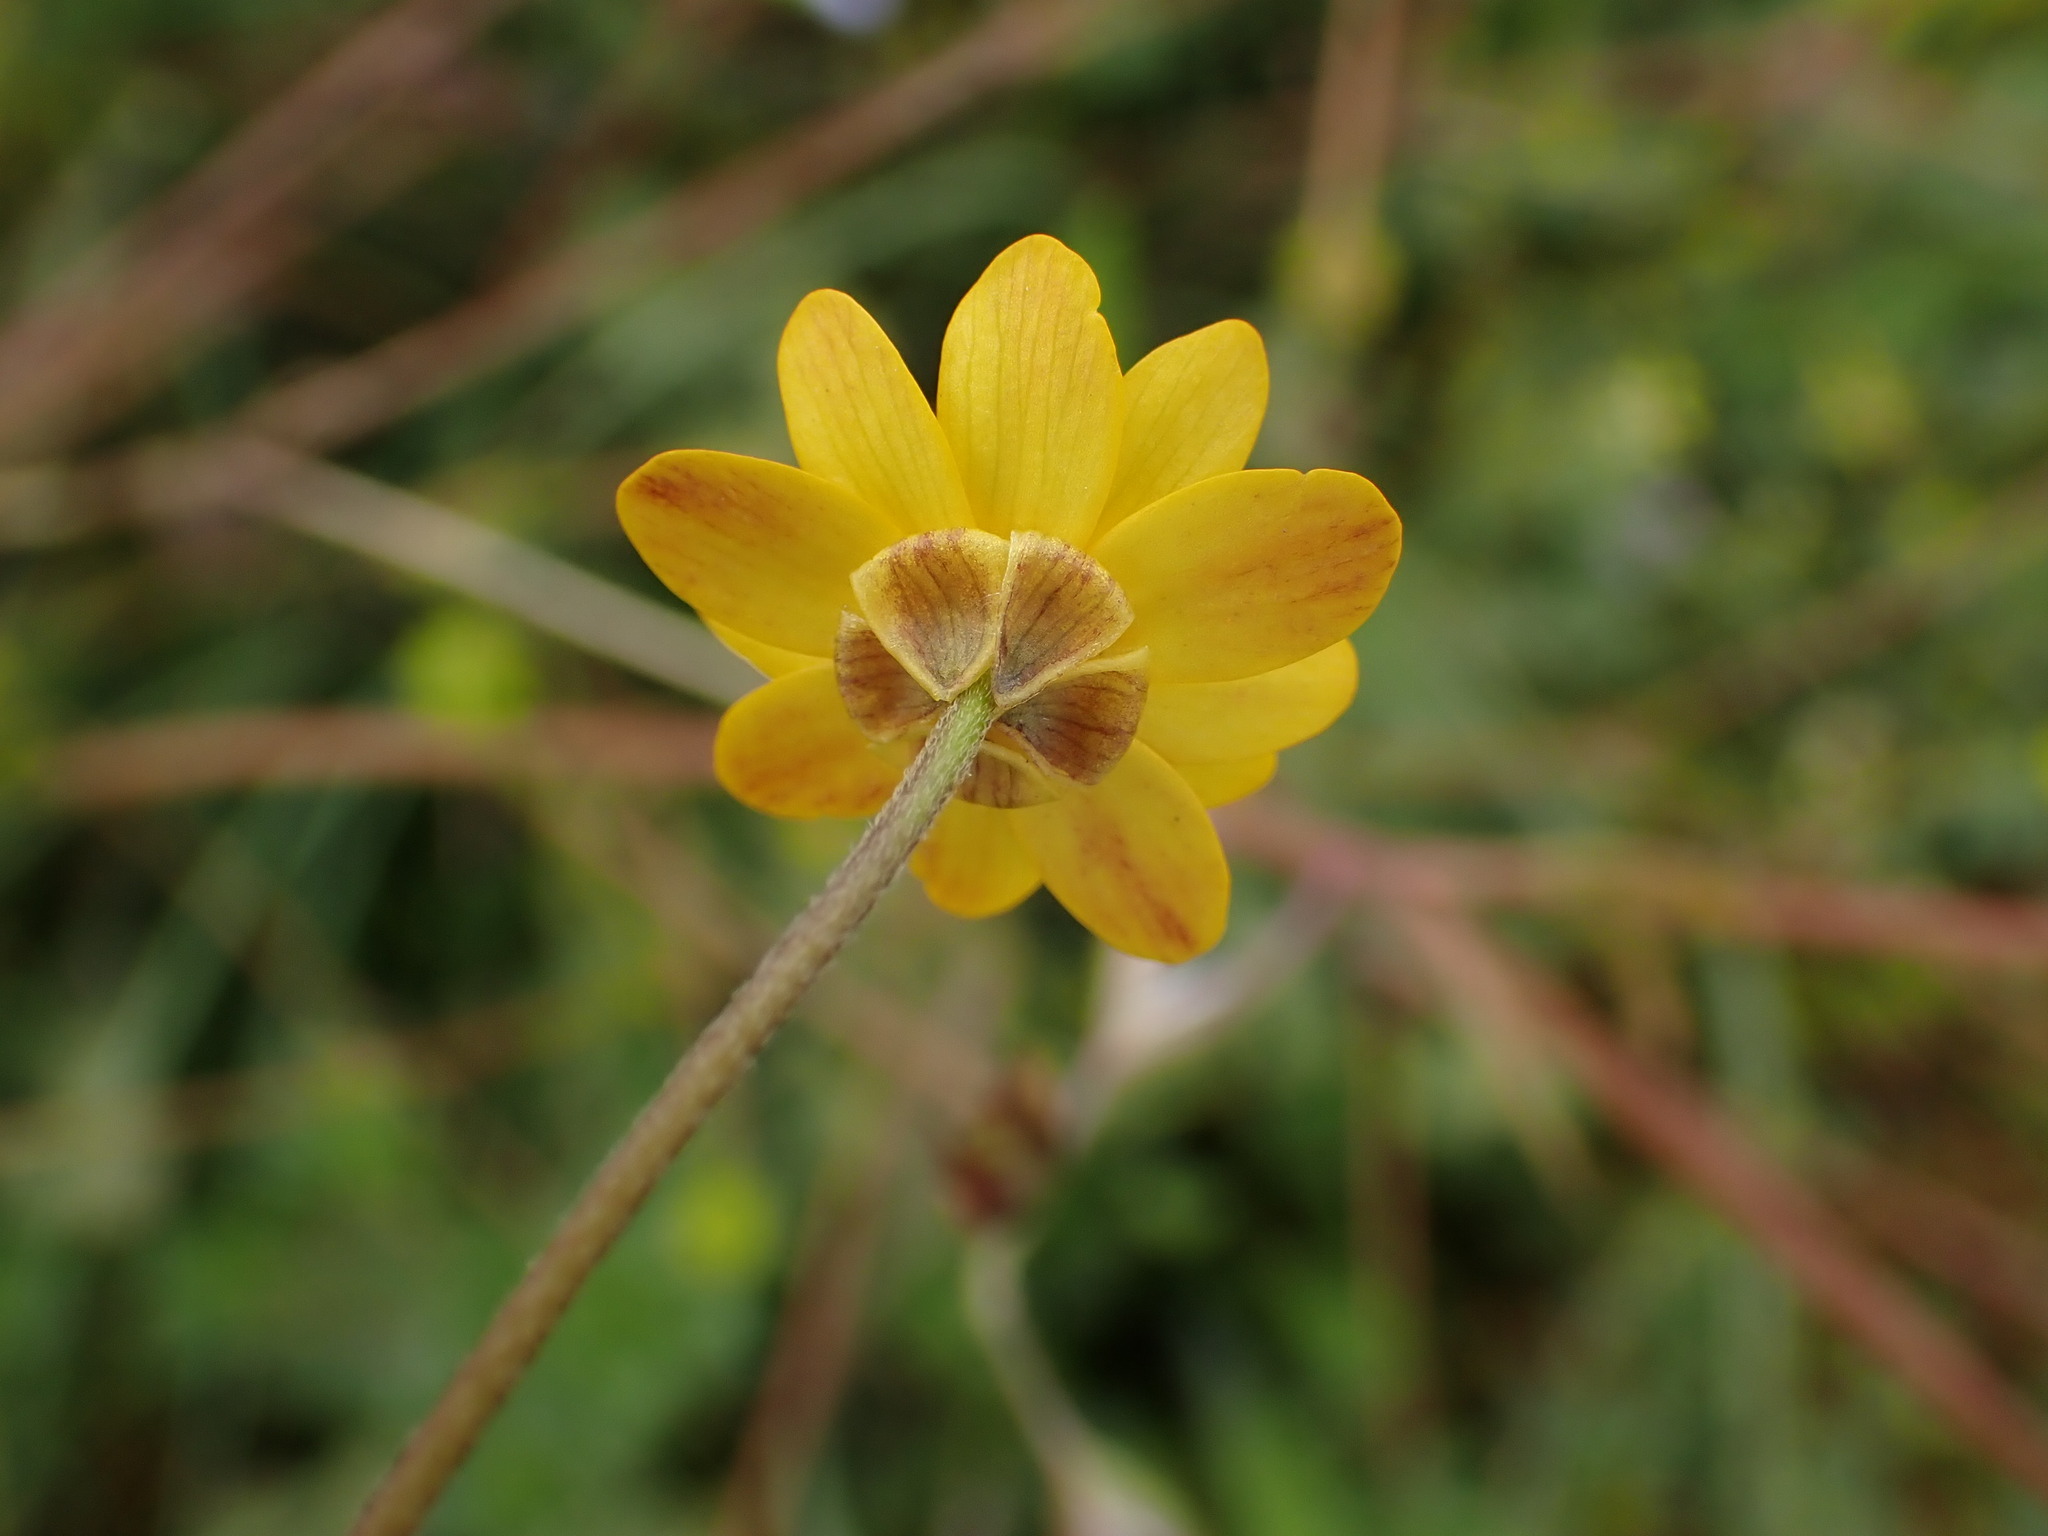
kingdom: Plantae
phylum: Tracheophyta
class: Magnoliopsida
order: Ranunculales
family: Ranunculaceae
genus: Ranunculus
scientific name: Ranunculus californicus
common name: California buttercup
